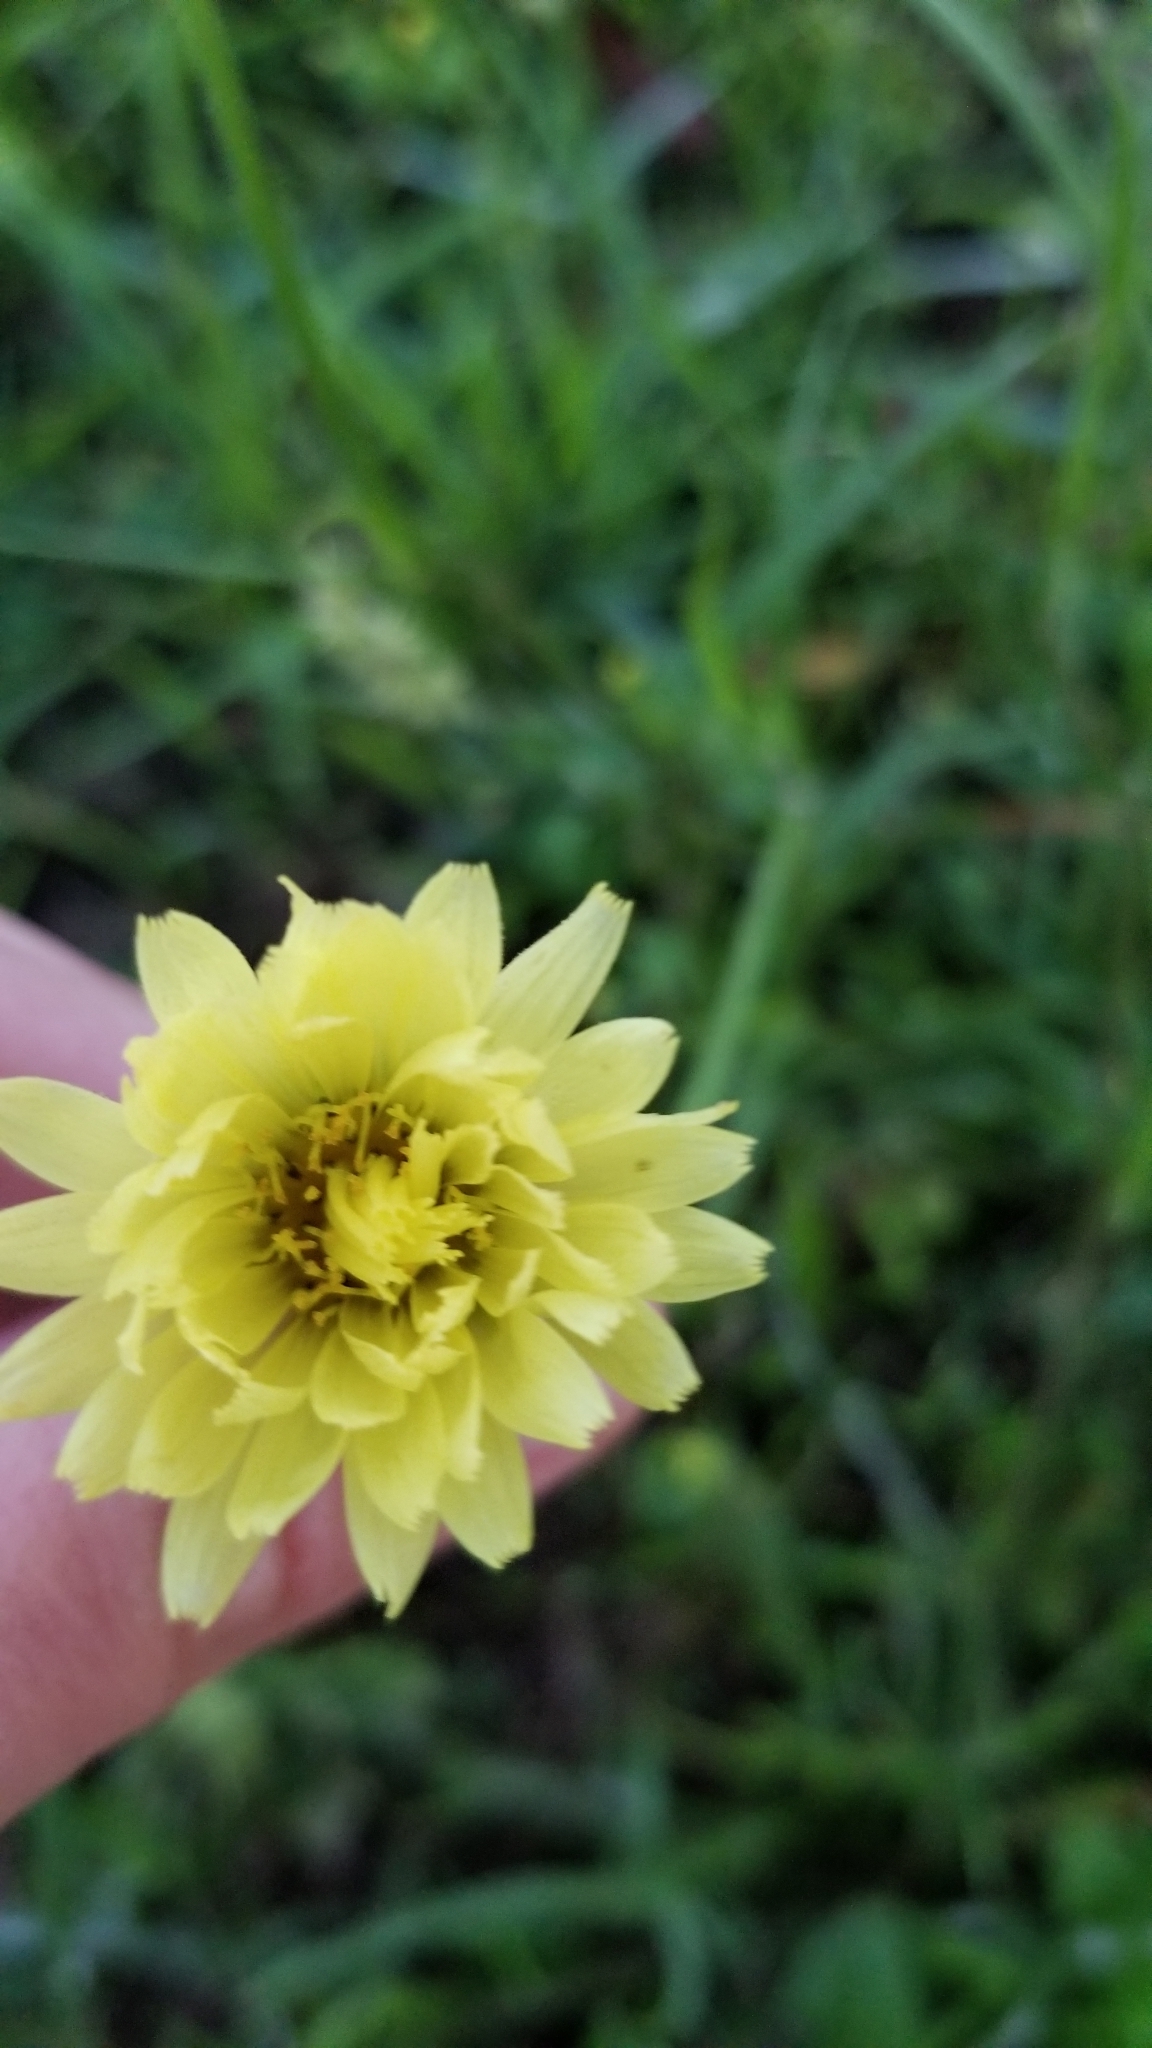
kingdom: Plantae
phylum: Tracheophyta
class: Magnoliopsida
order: Asterales
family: Asteraceae
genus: Pyrrhopappus
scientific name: Pyrrhopappus carolinianus
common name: Carolina desert-chicory
